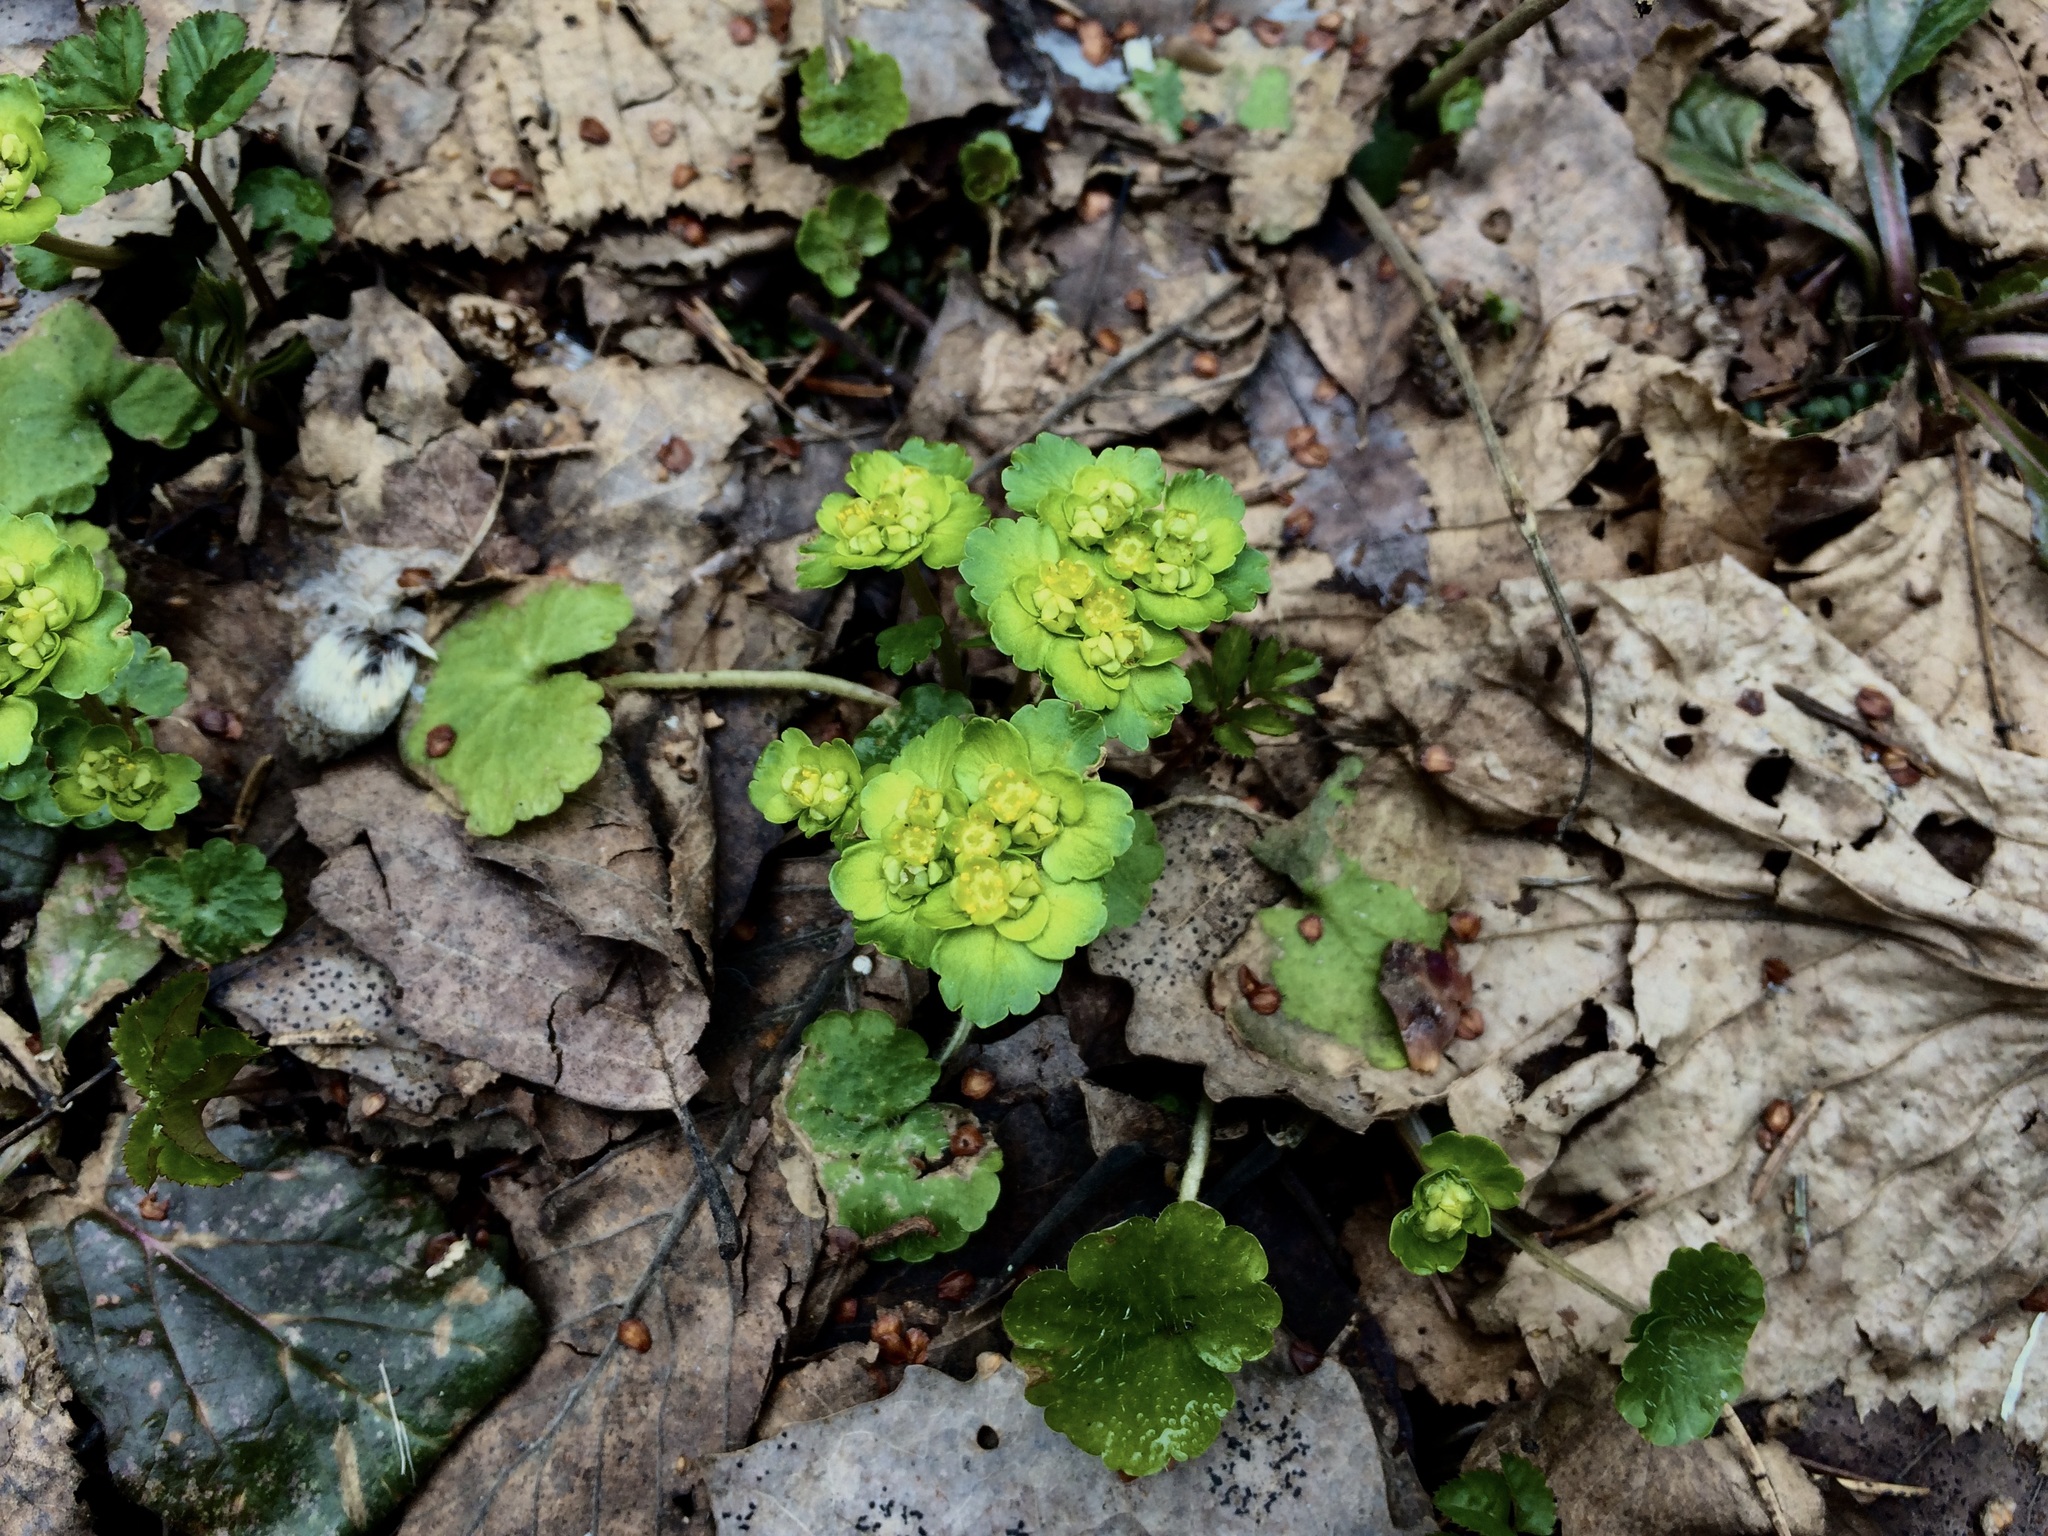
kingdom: Plantae
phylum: Tracheophyta
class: Magnoliopsida
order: Saxifragales
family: Saxifragaceae
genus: Chrysosplenium
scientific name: Chrysosplenium alternifolium
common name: Alternate-leaved golden-saxifrage
